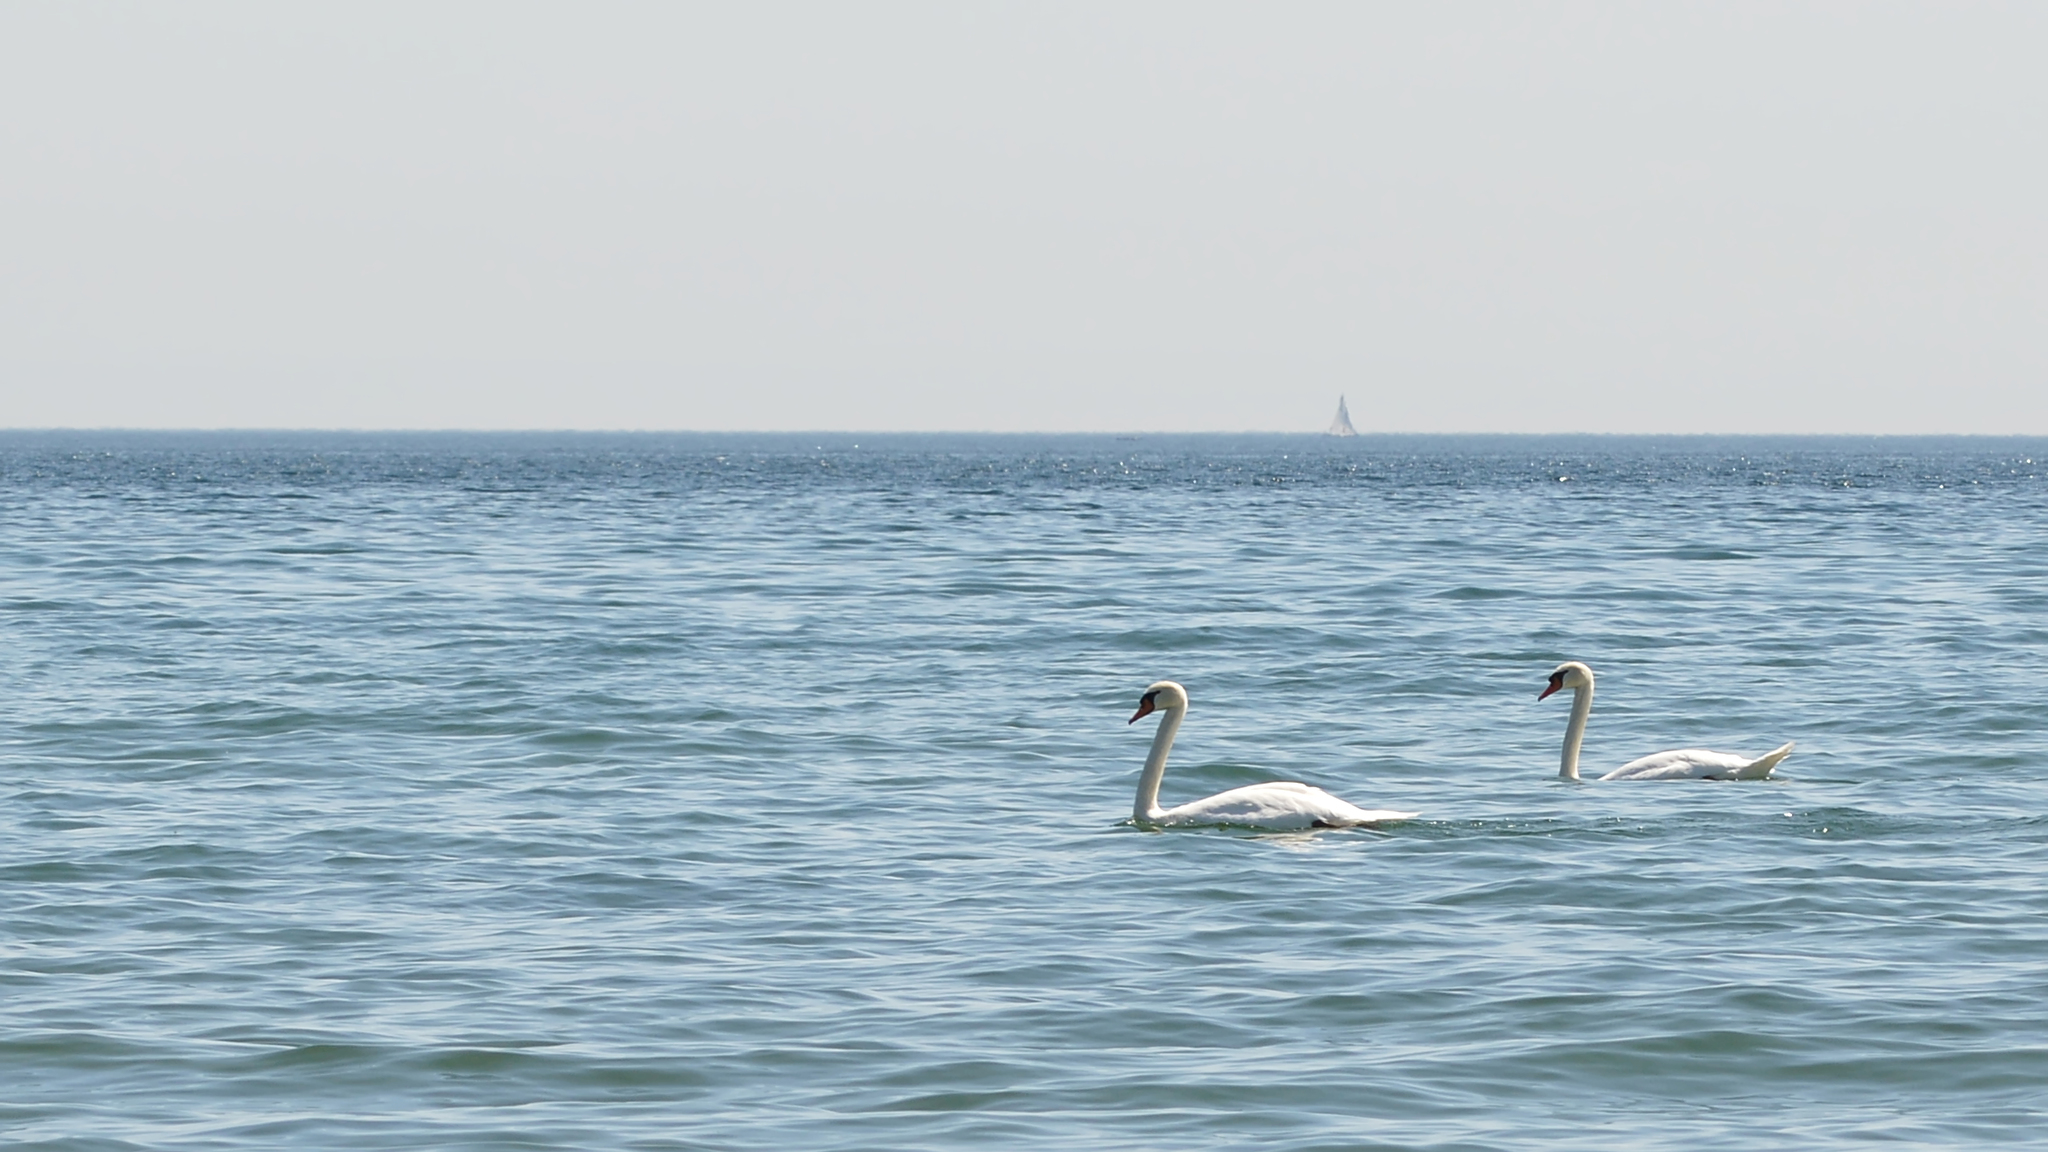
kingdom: Animalia
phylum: Chordata
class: Aves
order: Anseriformes
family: Anatidae
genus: Cygnus
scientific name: Cygnus olor
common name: Mute swan
